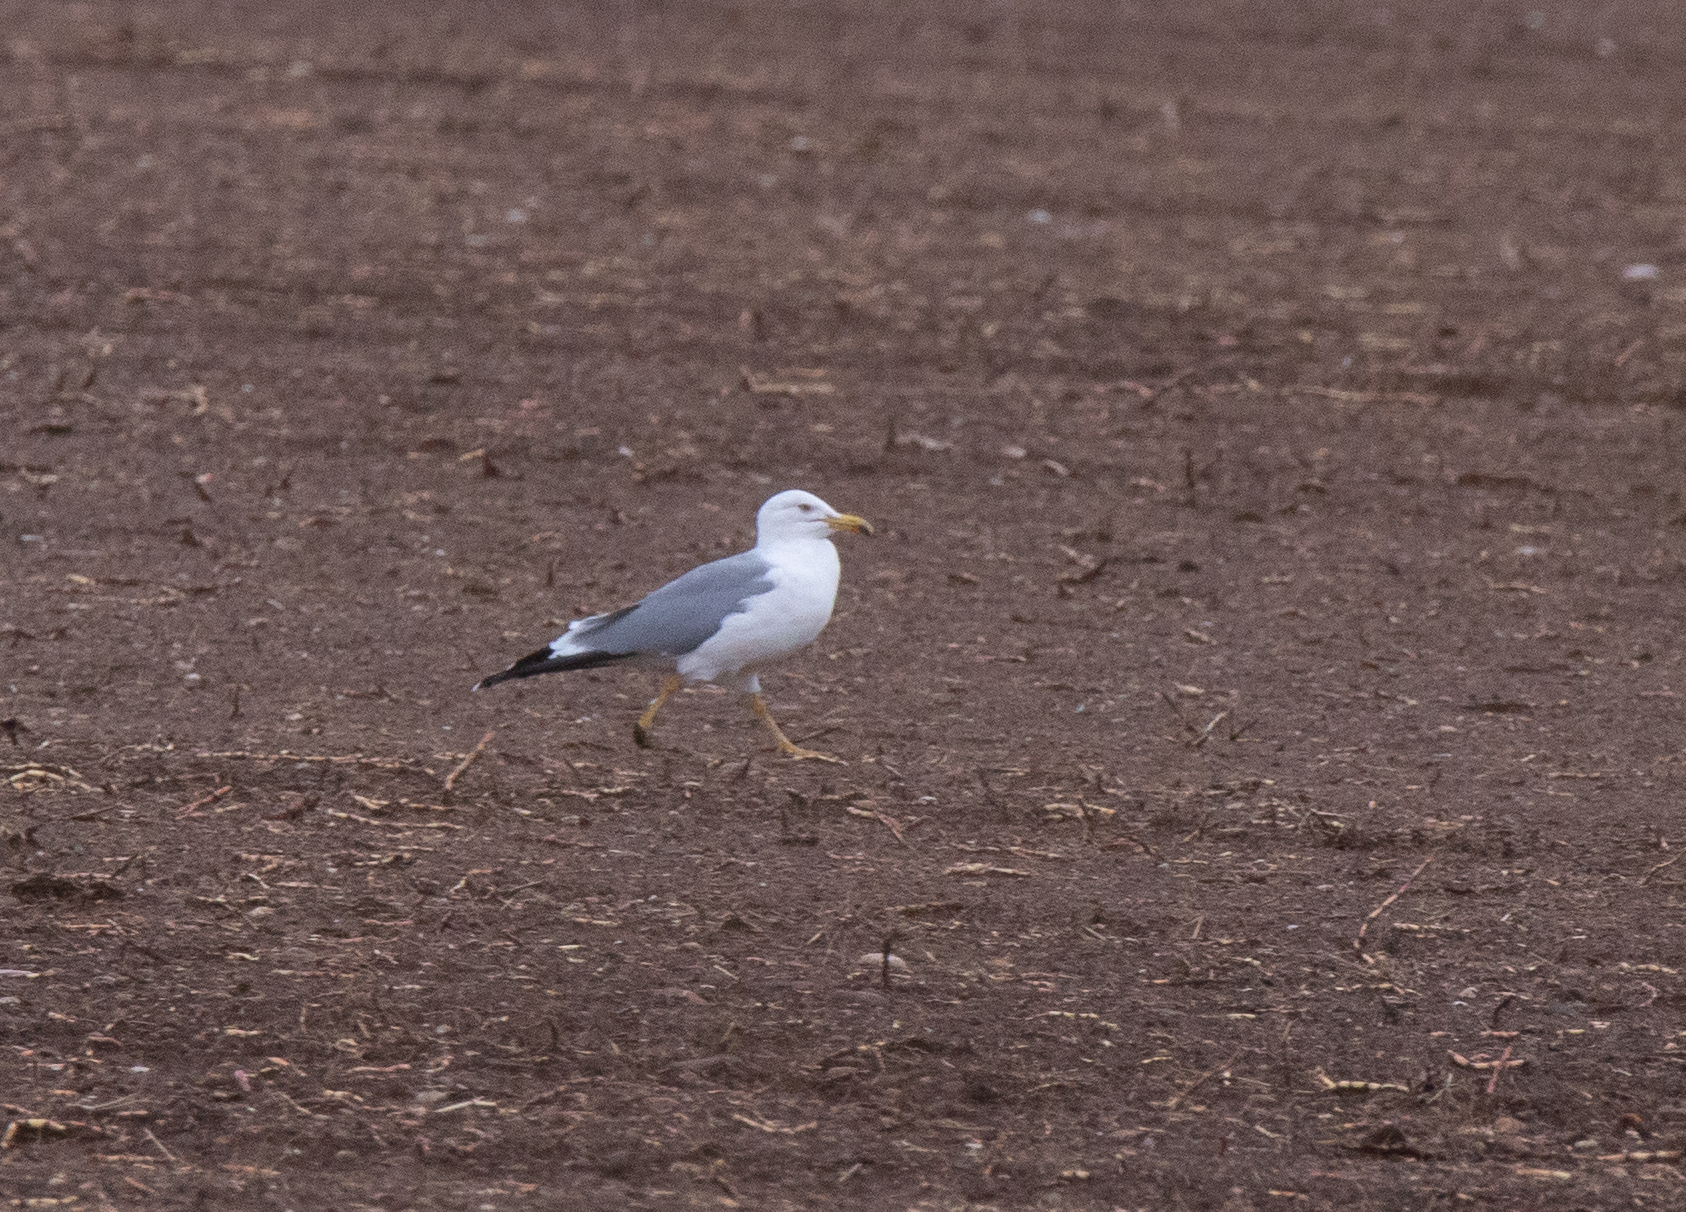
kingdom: Animalia
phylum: Chordata
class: Aves
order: Charadriiformes
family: Laridae
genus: Larus
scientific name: Larus michahellis
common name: Yellow-legged gull
